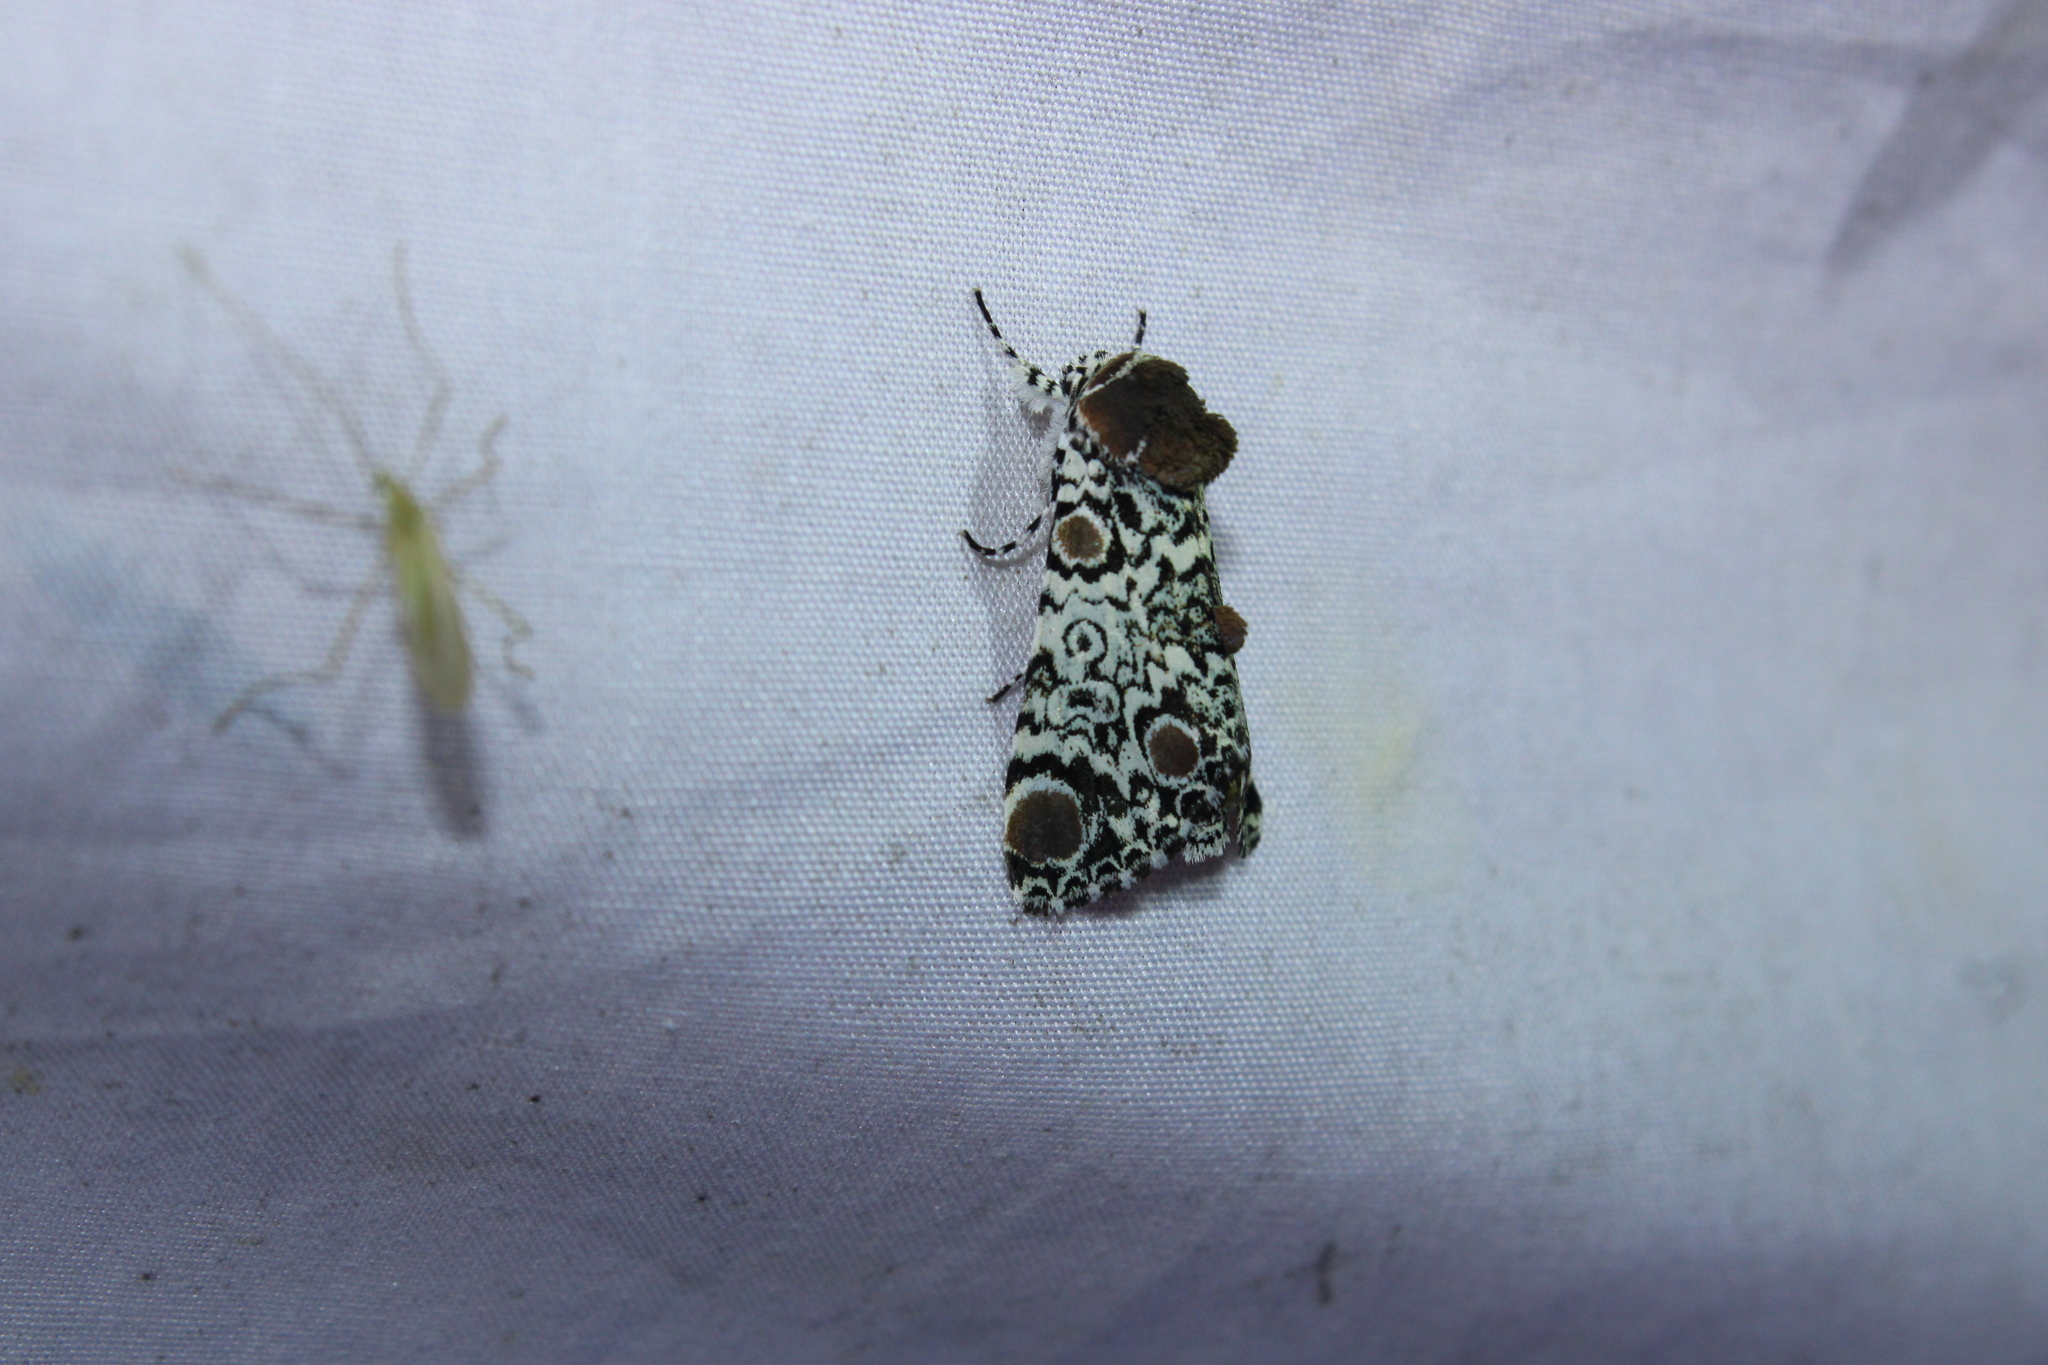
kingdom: Animalia
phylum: Arthropoda
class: Insecta
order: Lepidoptera
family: Noctuidae
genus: Harrisimemna
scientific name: Harrisimemna trisignata
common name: Harris threespot
